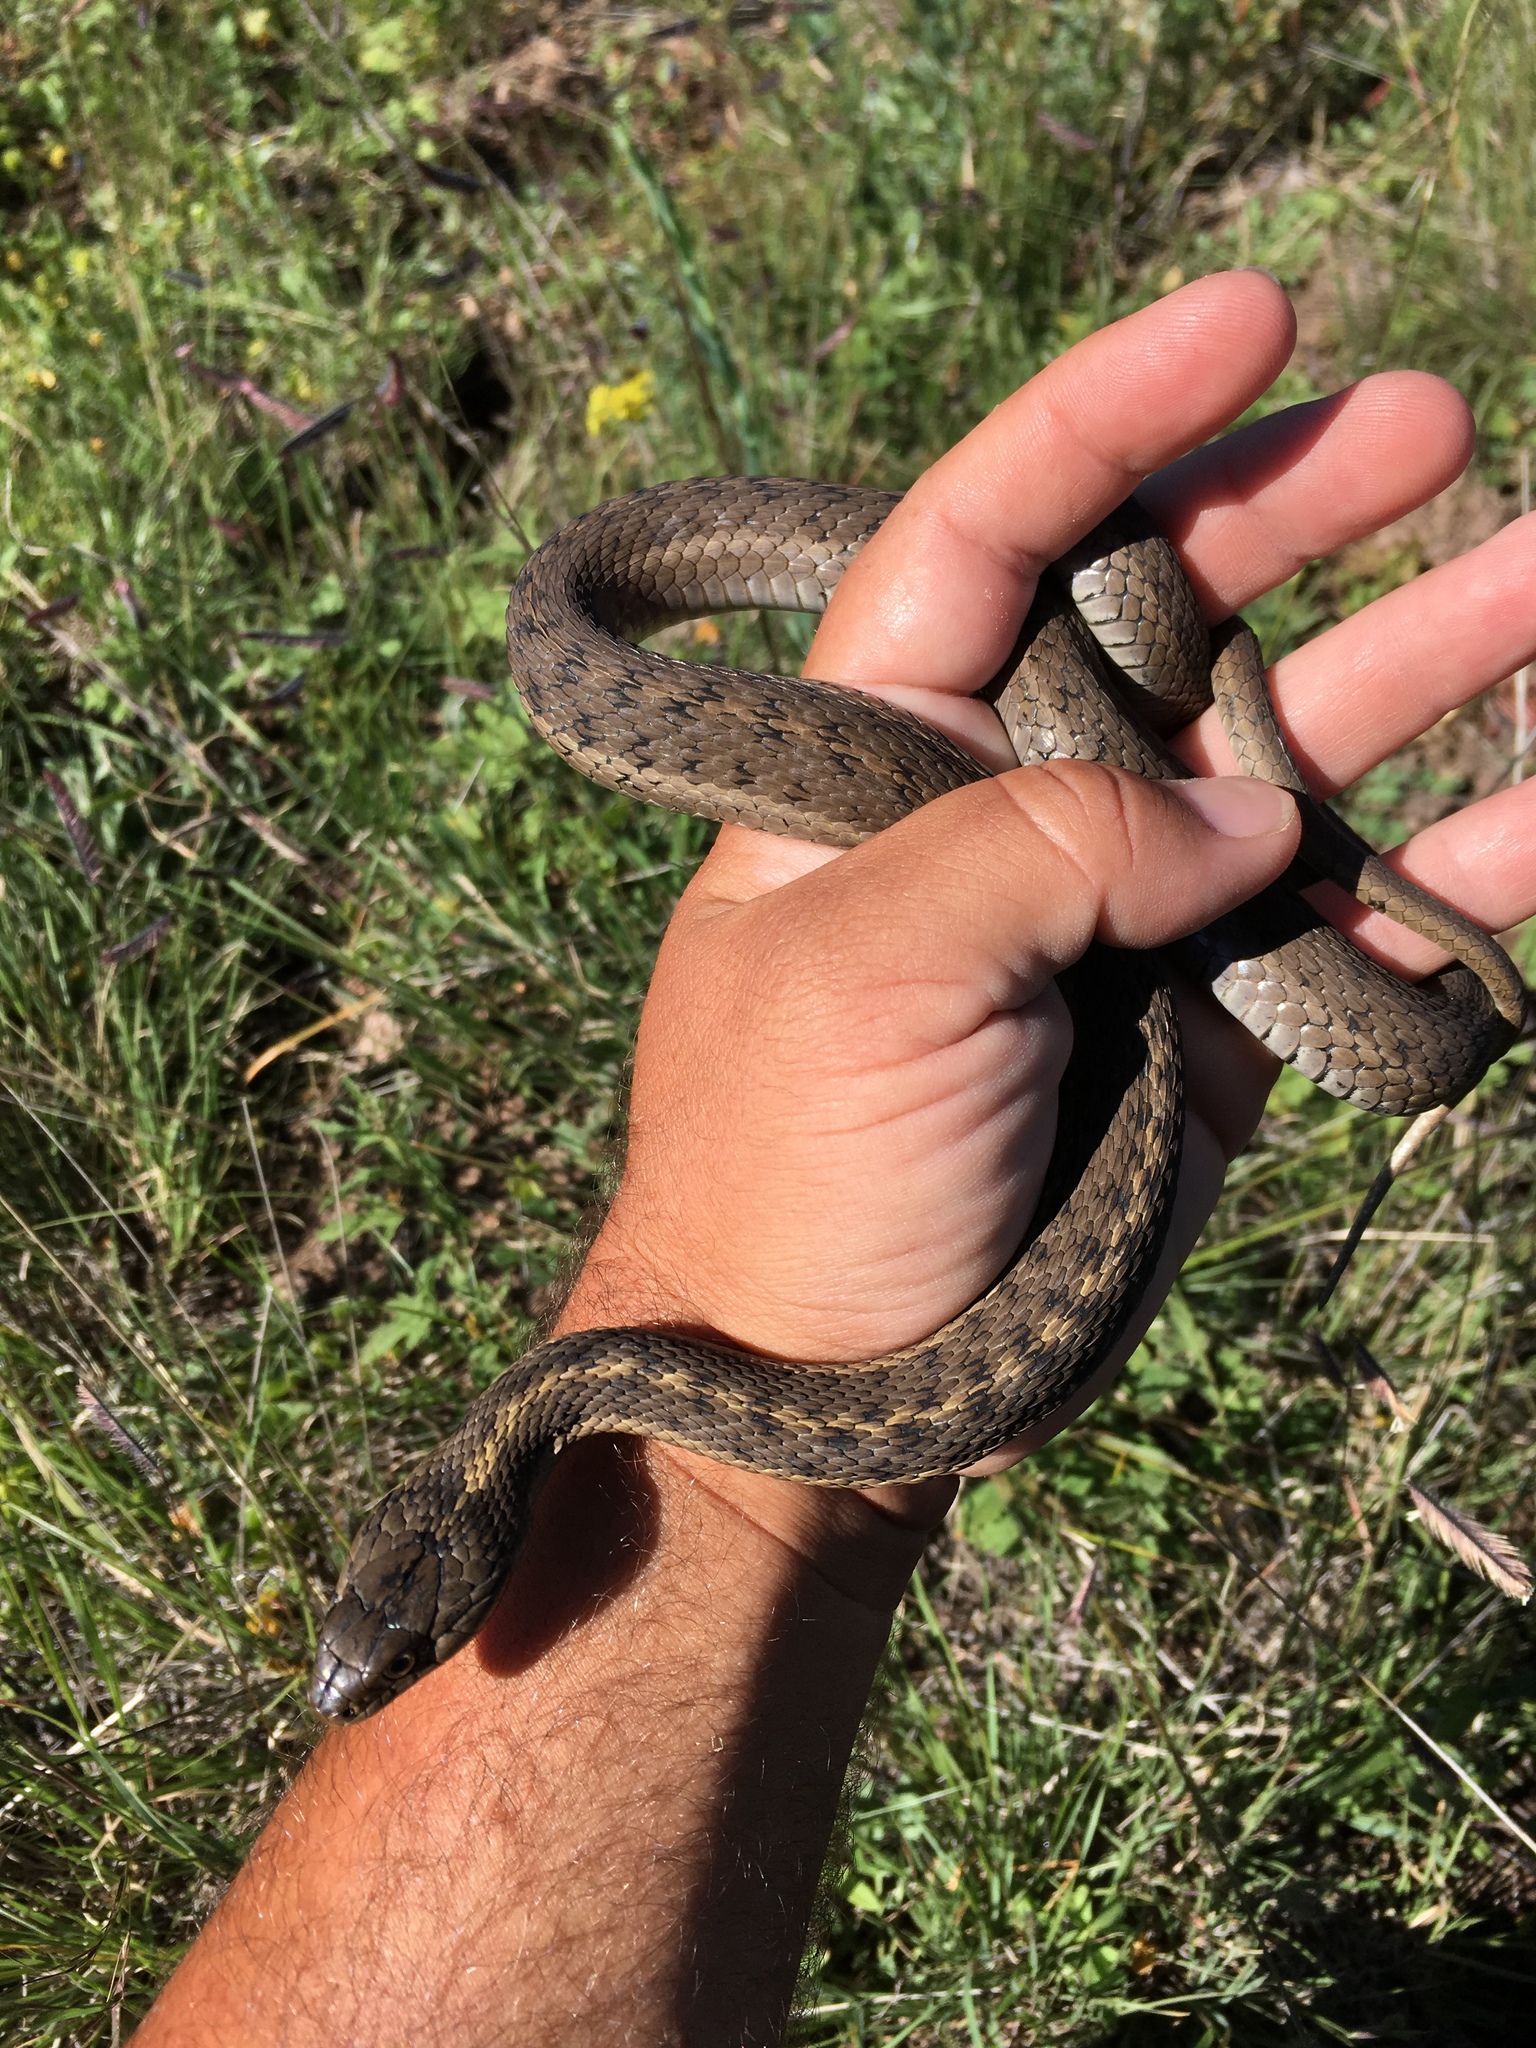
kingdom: Animalia
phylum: Chordata
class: Squamata
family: Colubridae
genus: Thamnophis
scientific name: Thamnophis elegans
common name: Western terrestrial garter snake
